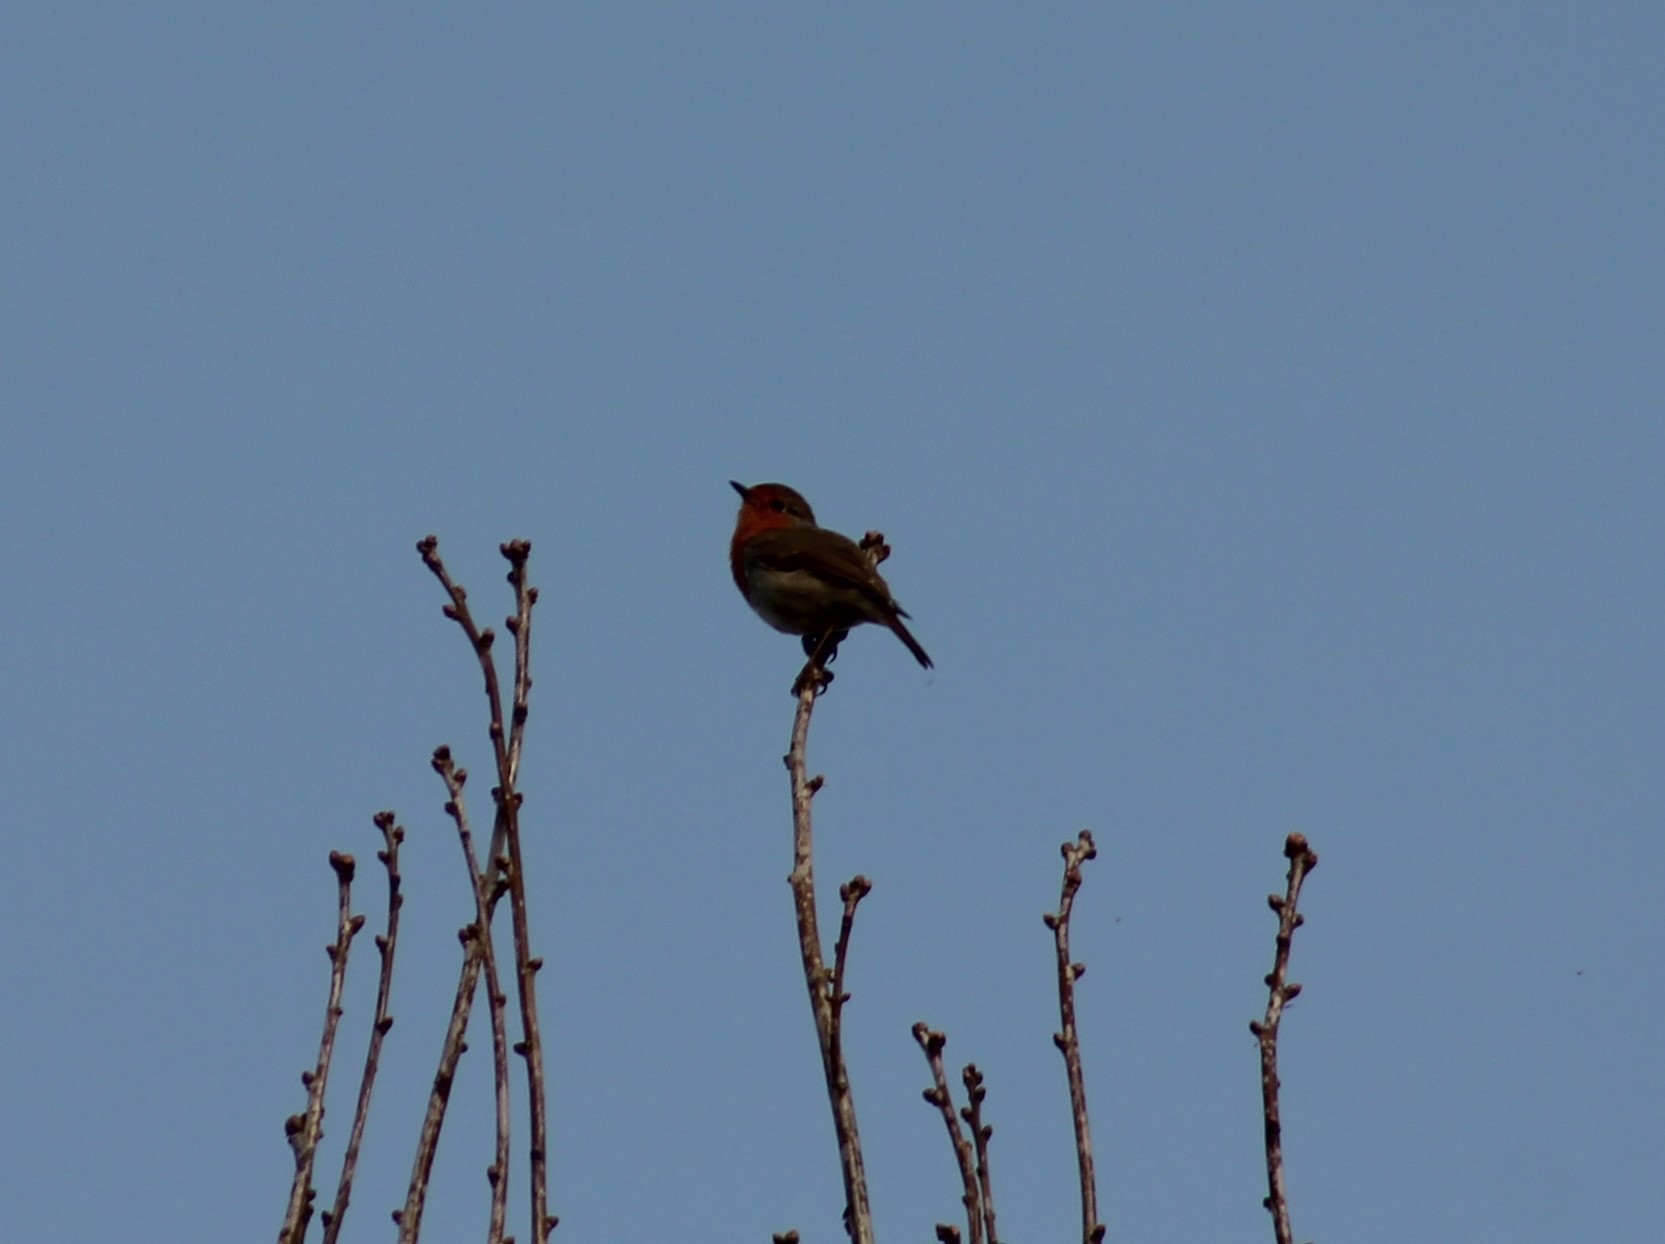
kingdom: Animalia
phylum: Chordata
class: Aves
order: Passeriformes
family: Muscicapidae
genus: Erithacus
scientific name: Erithacus rubecula
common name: European robin
